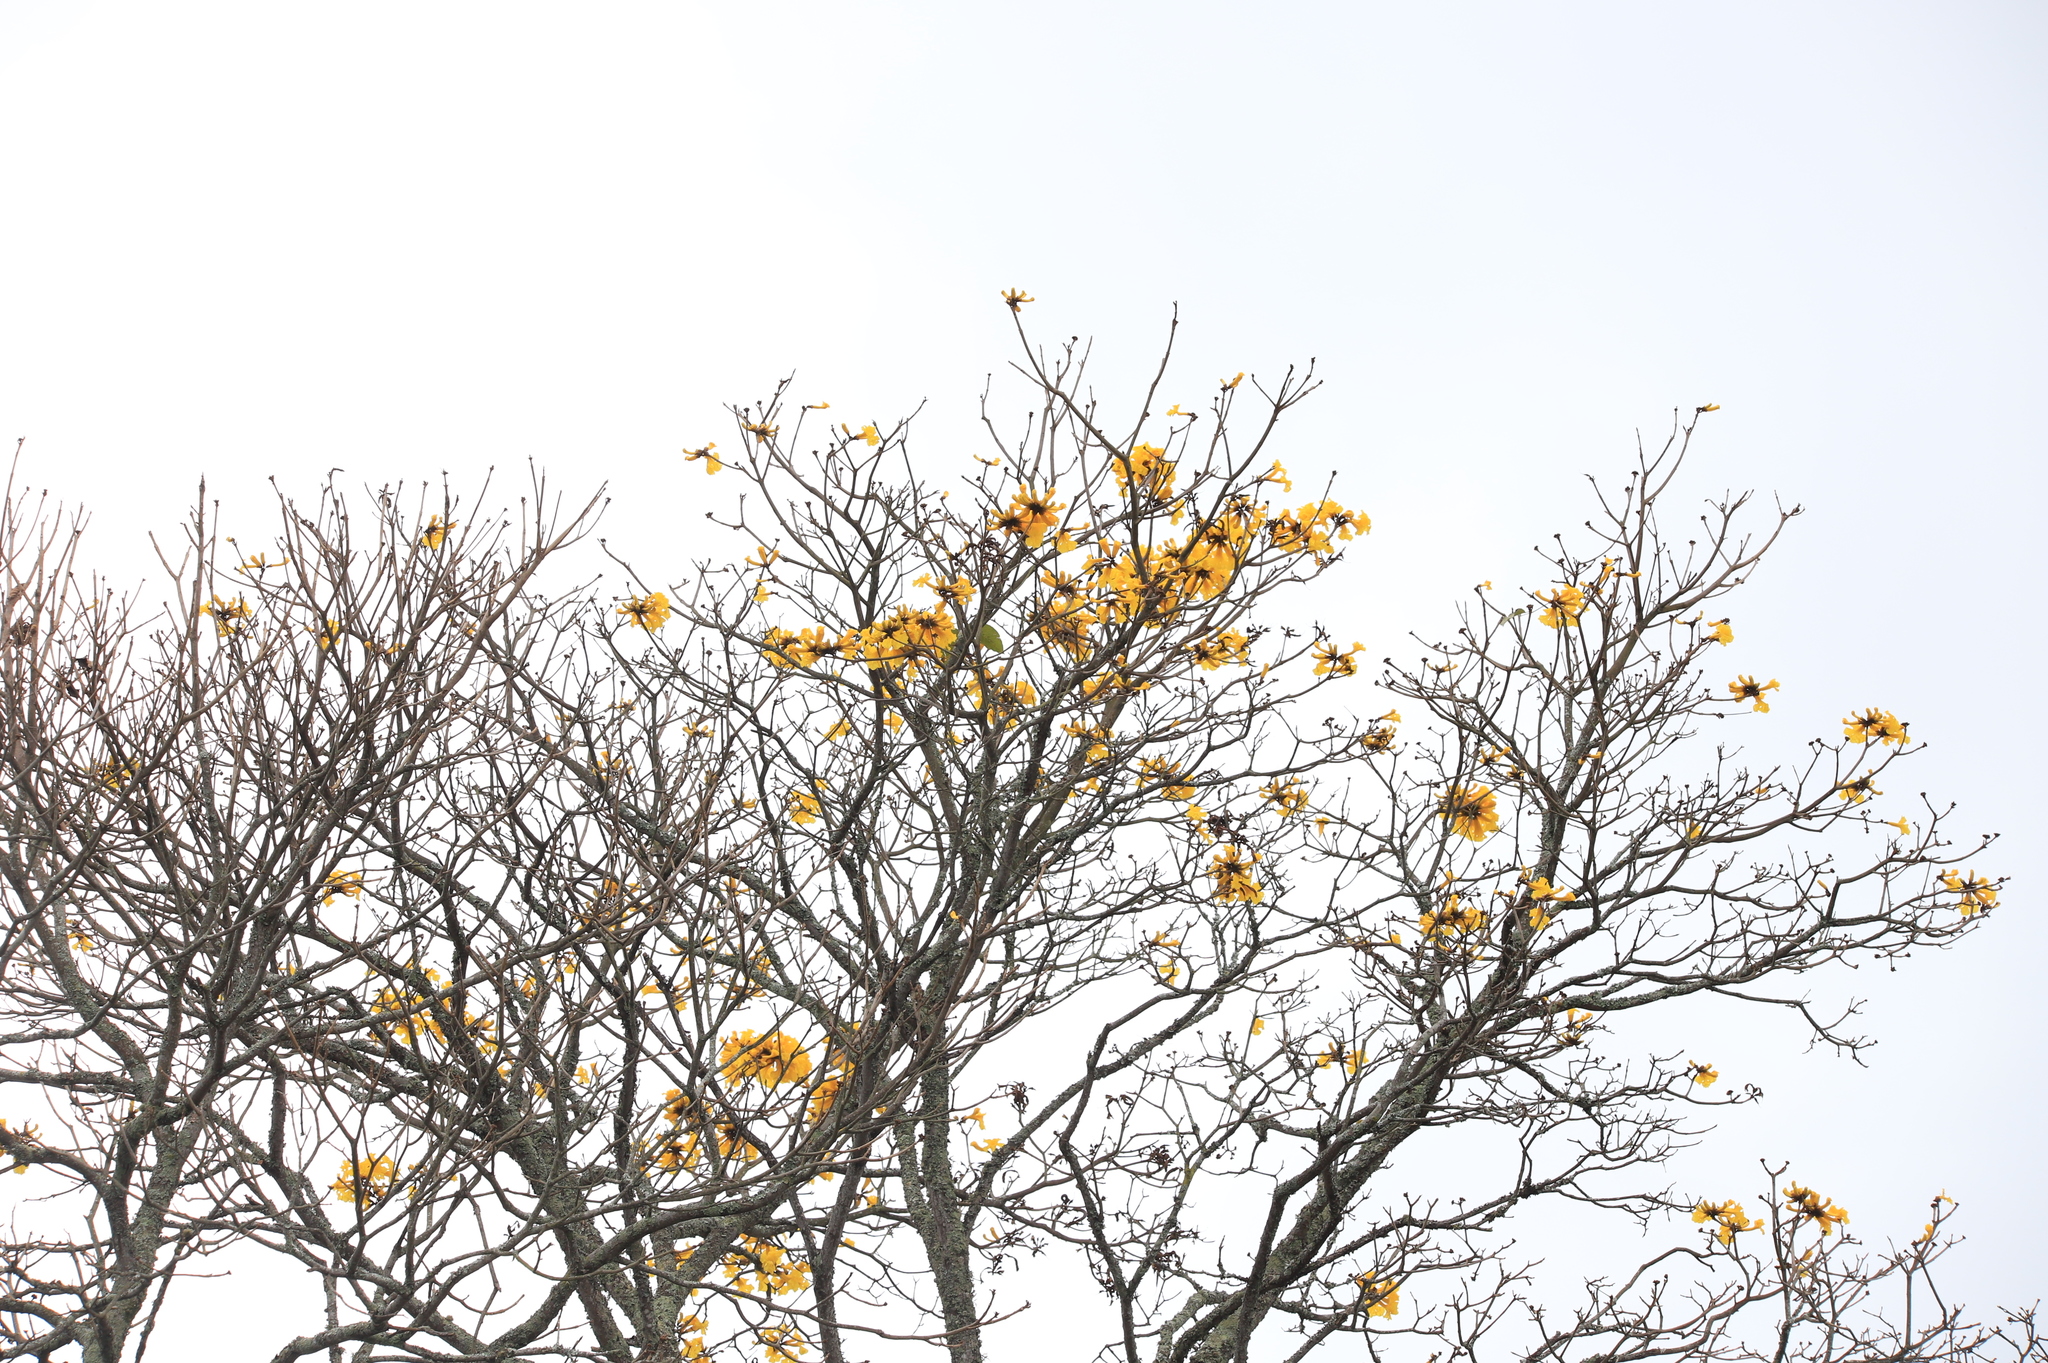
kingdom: Plantae
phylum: Tracheophyta
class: Magnoliopsida
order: Lamiales
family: Bignoniaceae
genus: Handroanthus
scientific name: Handroanthus chrysanthus
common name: Trumpet trees
